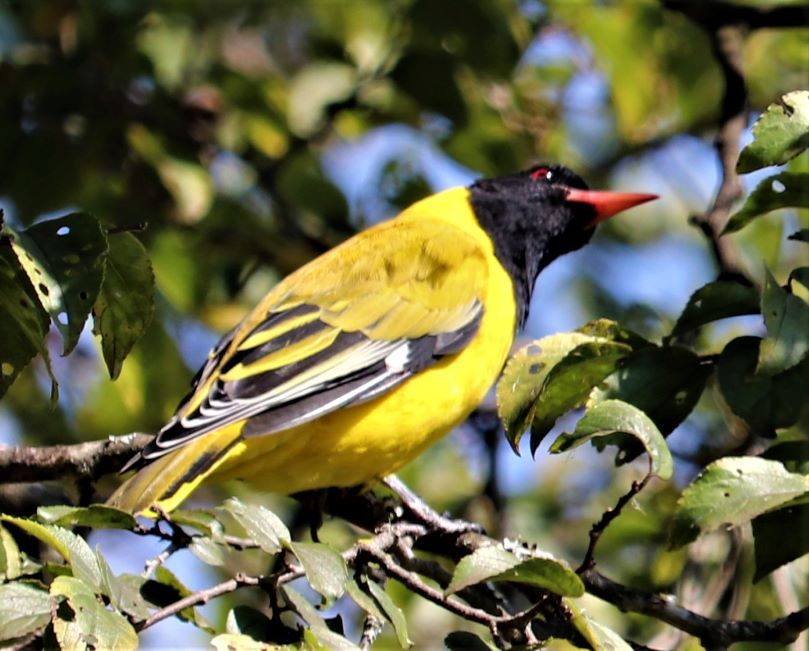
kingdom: Animalia
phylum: Chordata
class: Aves
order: Passeriformes
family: Oriolidae
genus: Oriolus
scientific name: Oriolus larvatus
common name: Black-headed oriole
